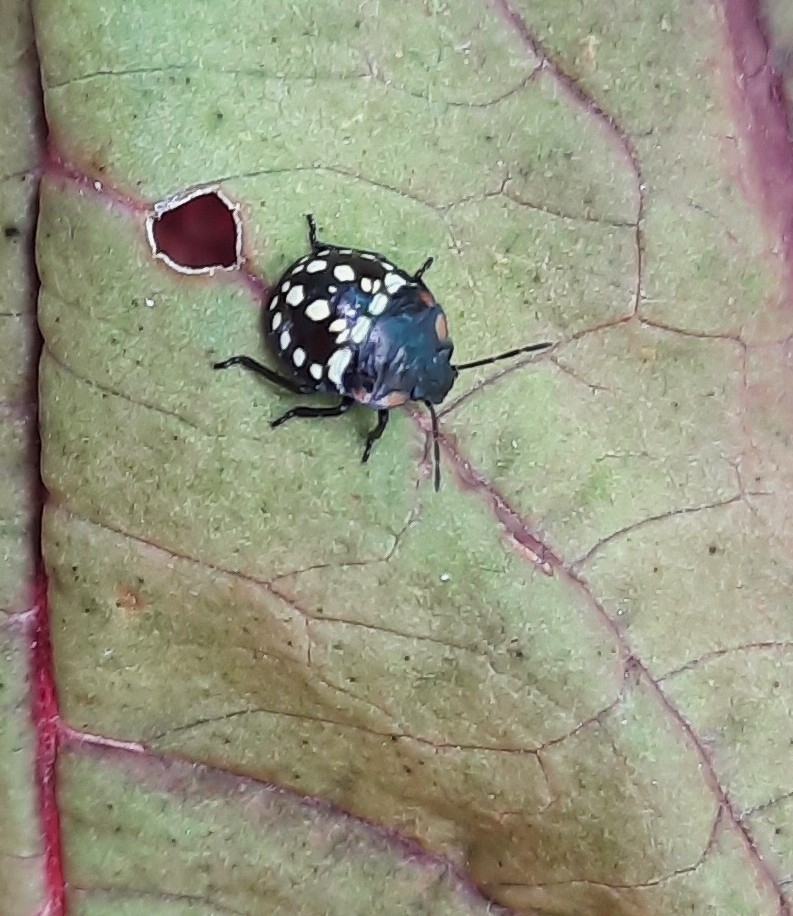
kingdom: Animalia
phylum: Arthropoda
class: Insecta
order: Hemiptera
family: Pentatomidae
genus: Nezara
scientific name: Nezara viridula
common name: Southern green stink bug
